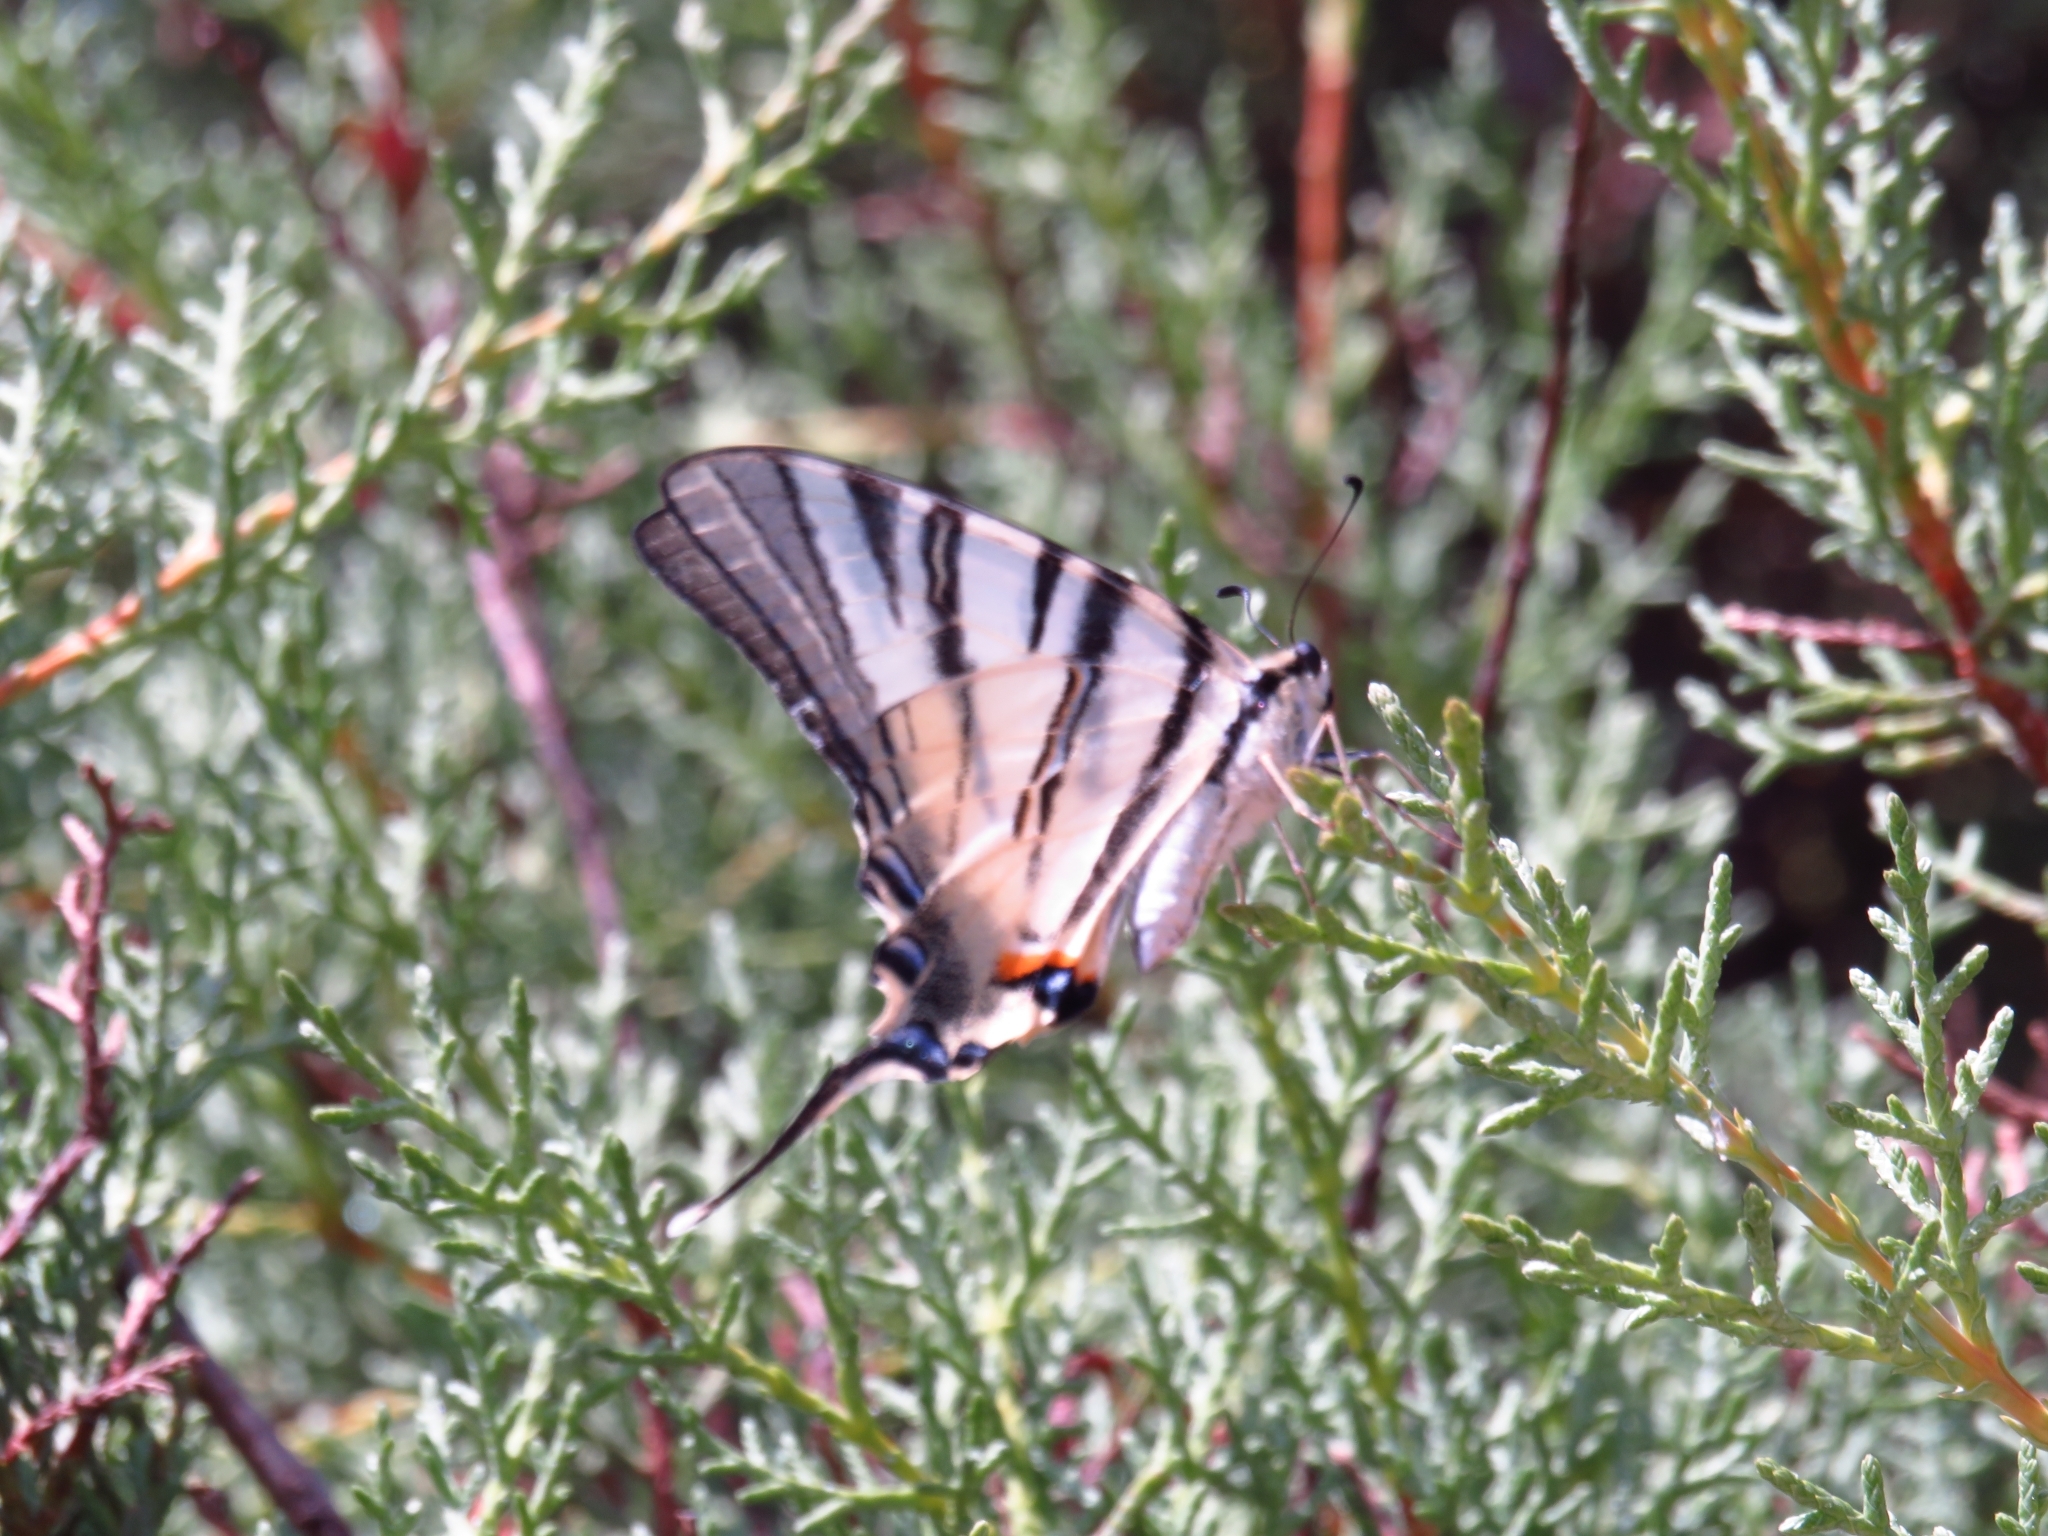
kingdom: Animalia
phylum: Arthropoda
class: Insecta
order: Lepidoptera
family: Papilionidae
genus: Iphiclides
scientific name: Iphiclides podalirius
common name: Scarce swallowtail
